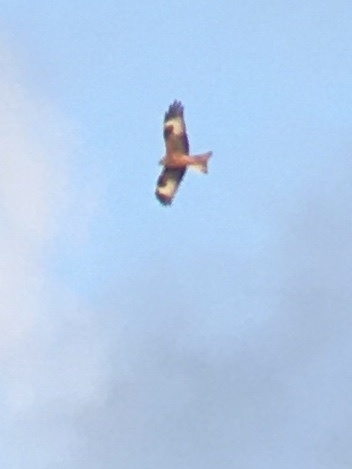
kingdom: Animalia
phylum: Chordata
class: Aves
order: Accipitriformes
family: Accipitridae
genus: Milvus
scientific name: Milvus milvus
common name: Red kite
